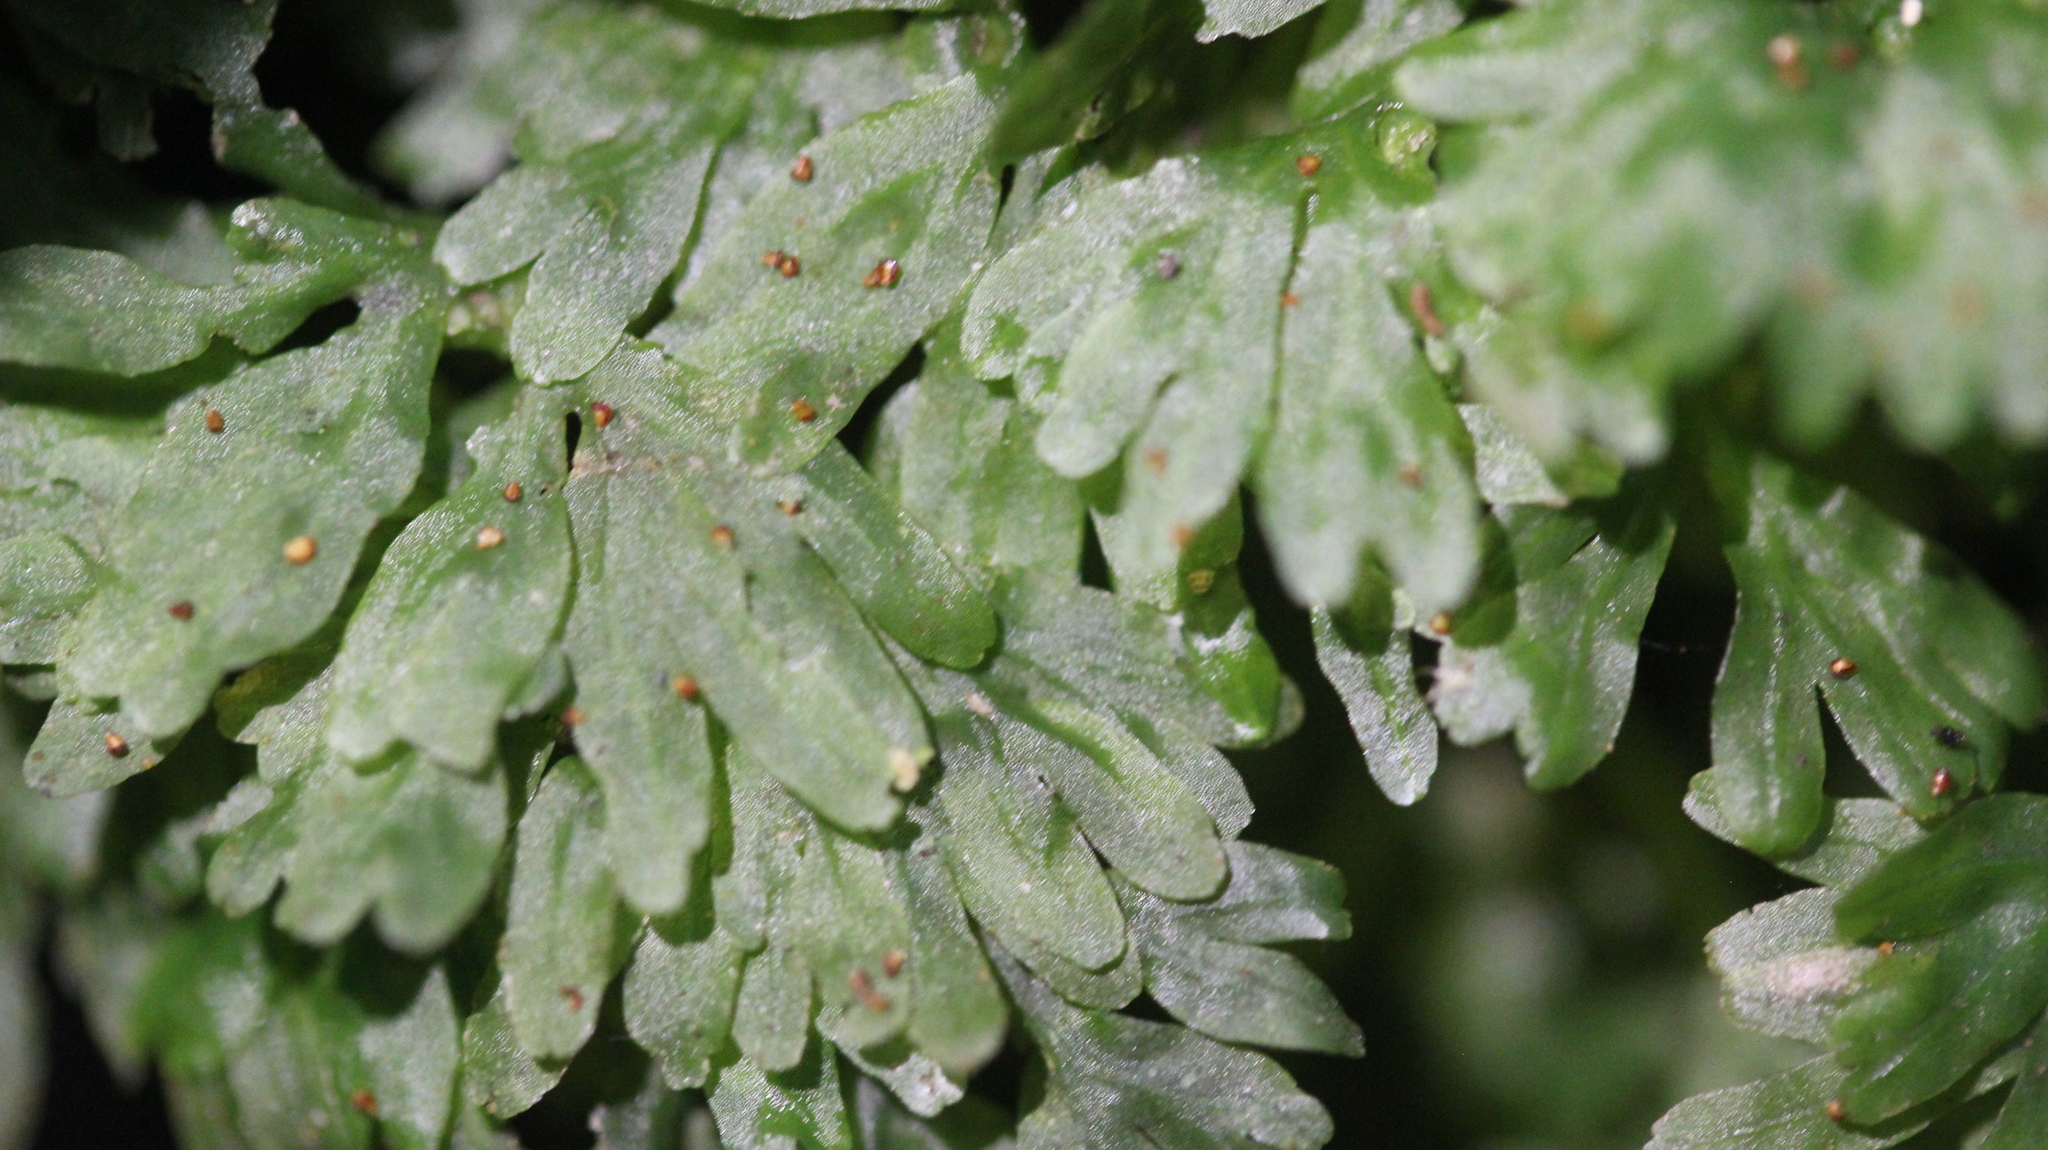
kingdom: Plantae
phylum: Marchantiophyta
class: Jungermanniopsida
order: Pallaviciniales
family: Hymenophytaceae
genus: Hymenophyton
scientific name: Hymenophyton flabellatum
